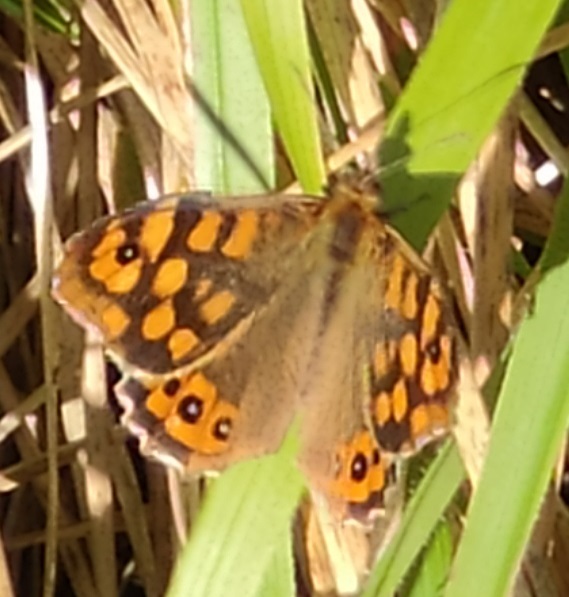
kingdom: Animalia
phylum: Arthropoda
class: Insecta
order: Lepidoptera
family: Nymphalidae
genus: Pararge
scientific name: Pararge aegeria
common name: Speckled wood
